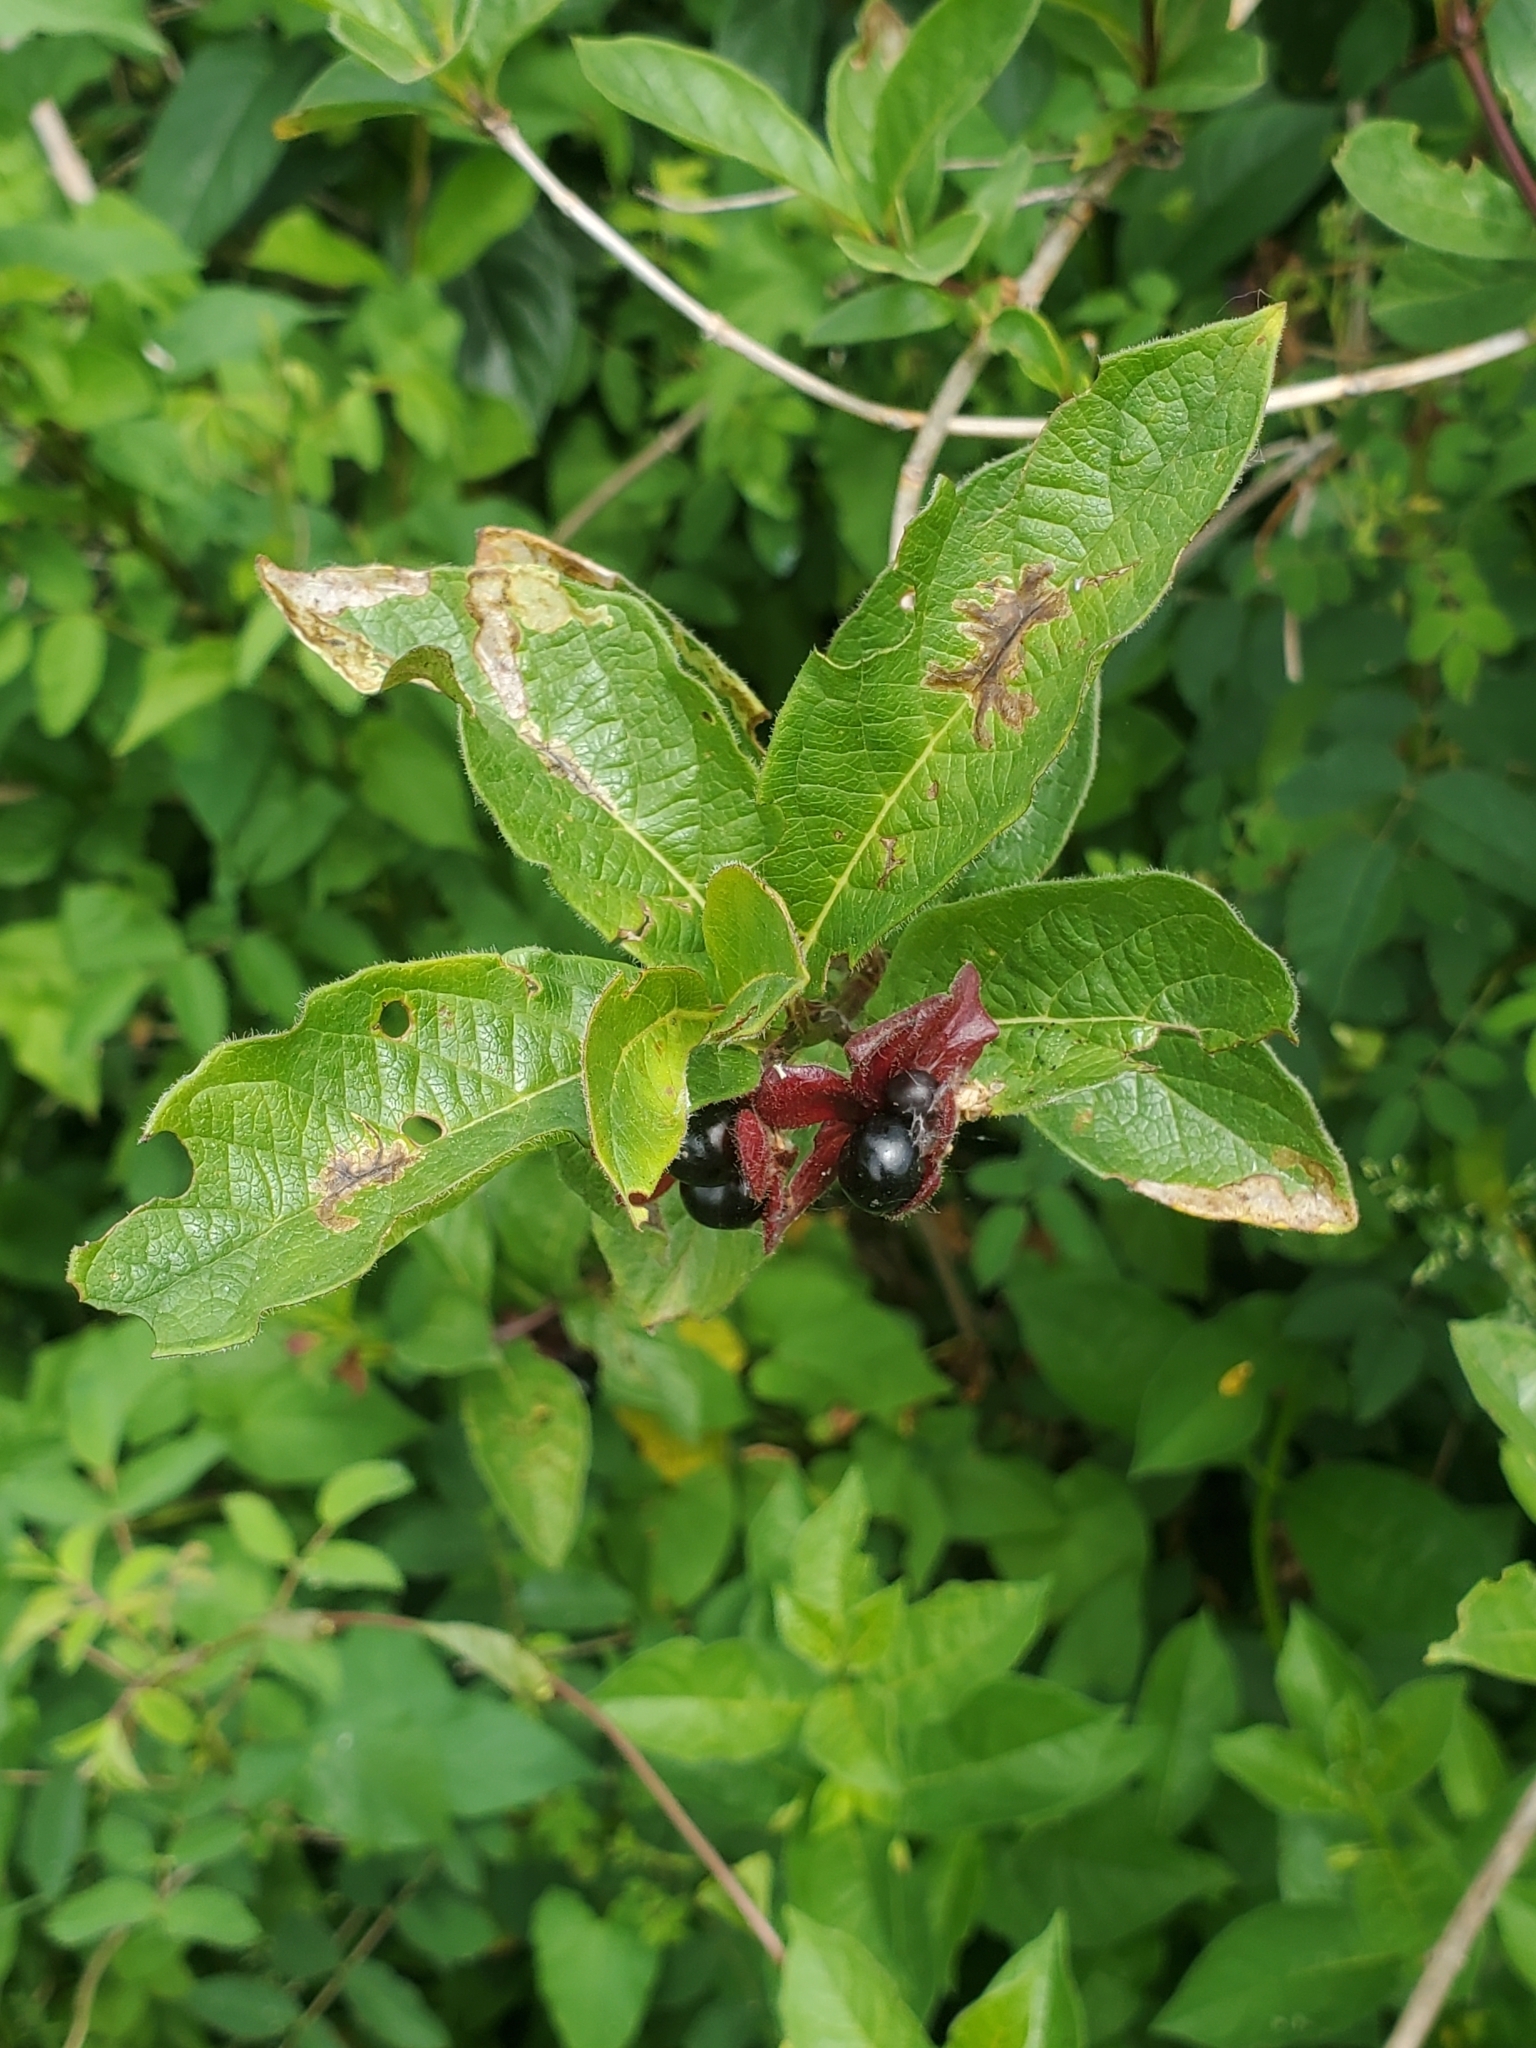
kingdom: Plantae
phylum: Tracheophyta
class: Magnoliopsida
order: Dipsacales
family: Caprifoliaceae
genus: Lonicera
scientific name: Lonicera involucrata
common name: Californian honeysuckle
